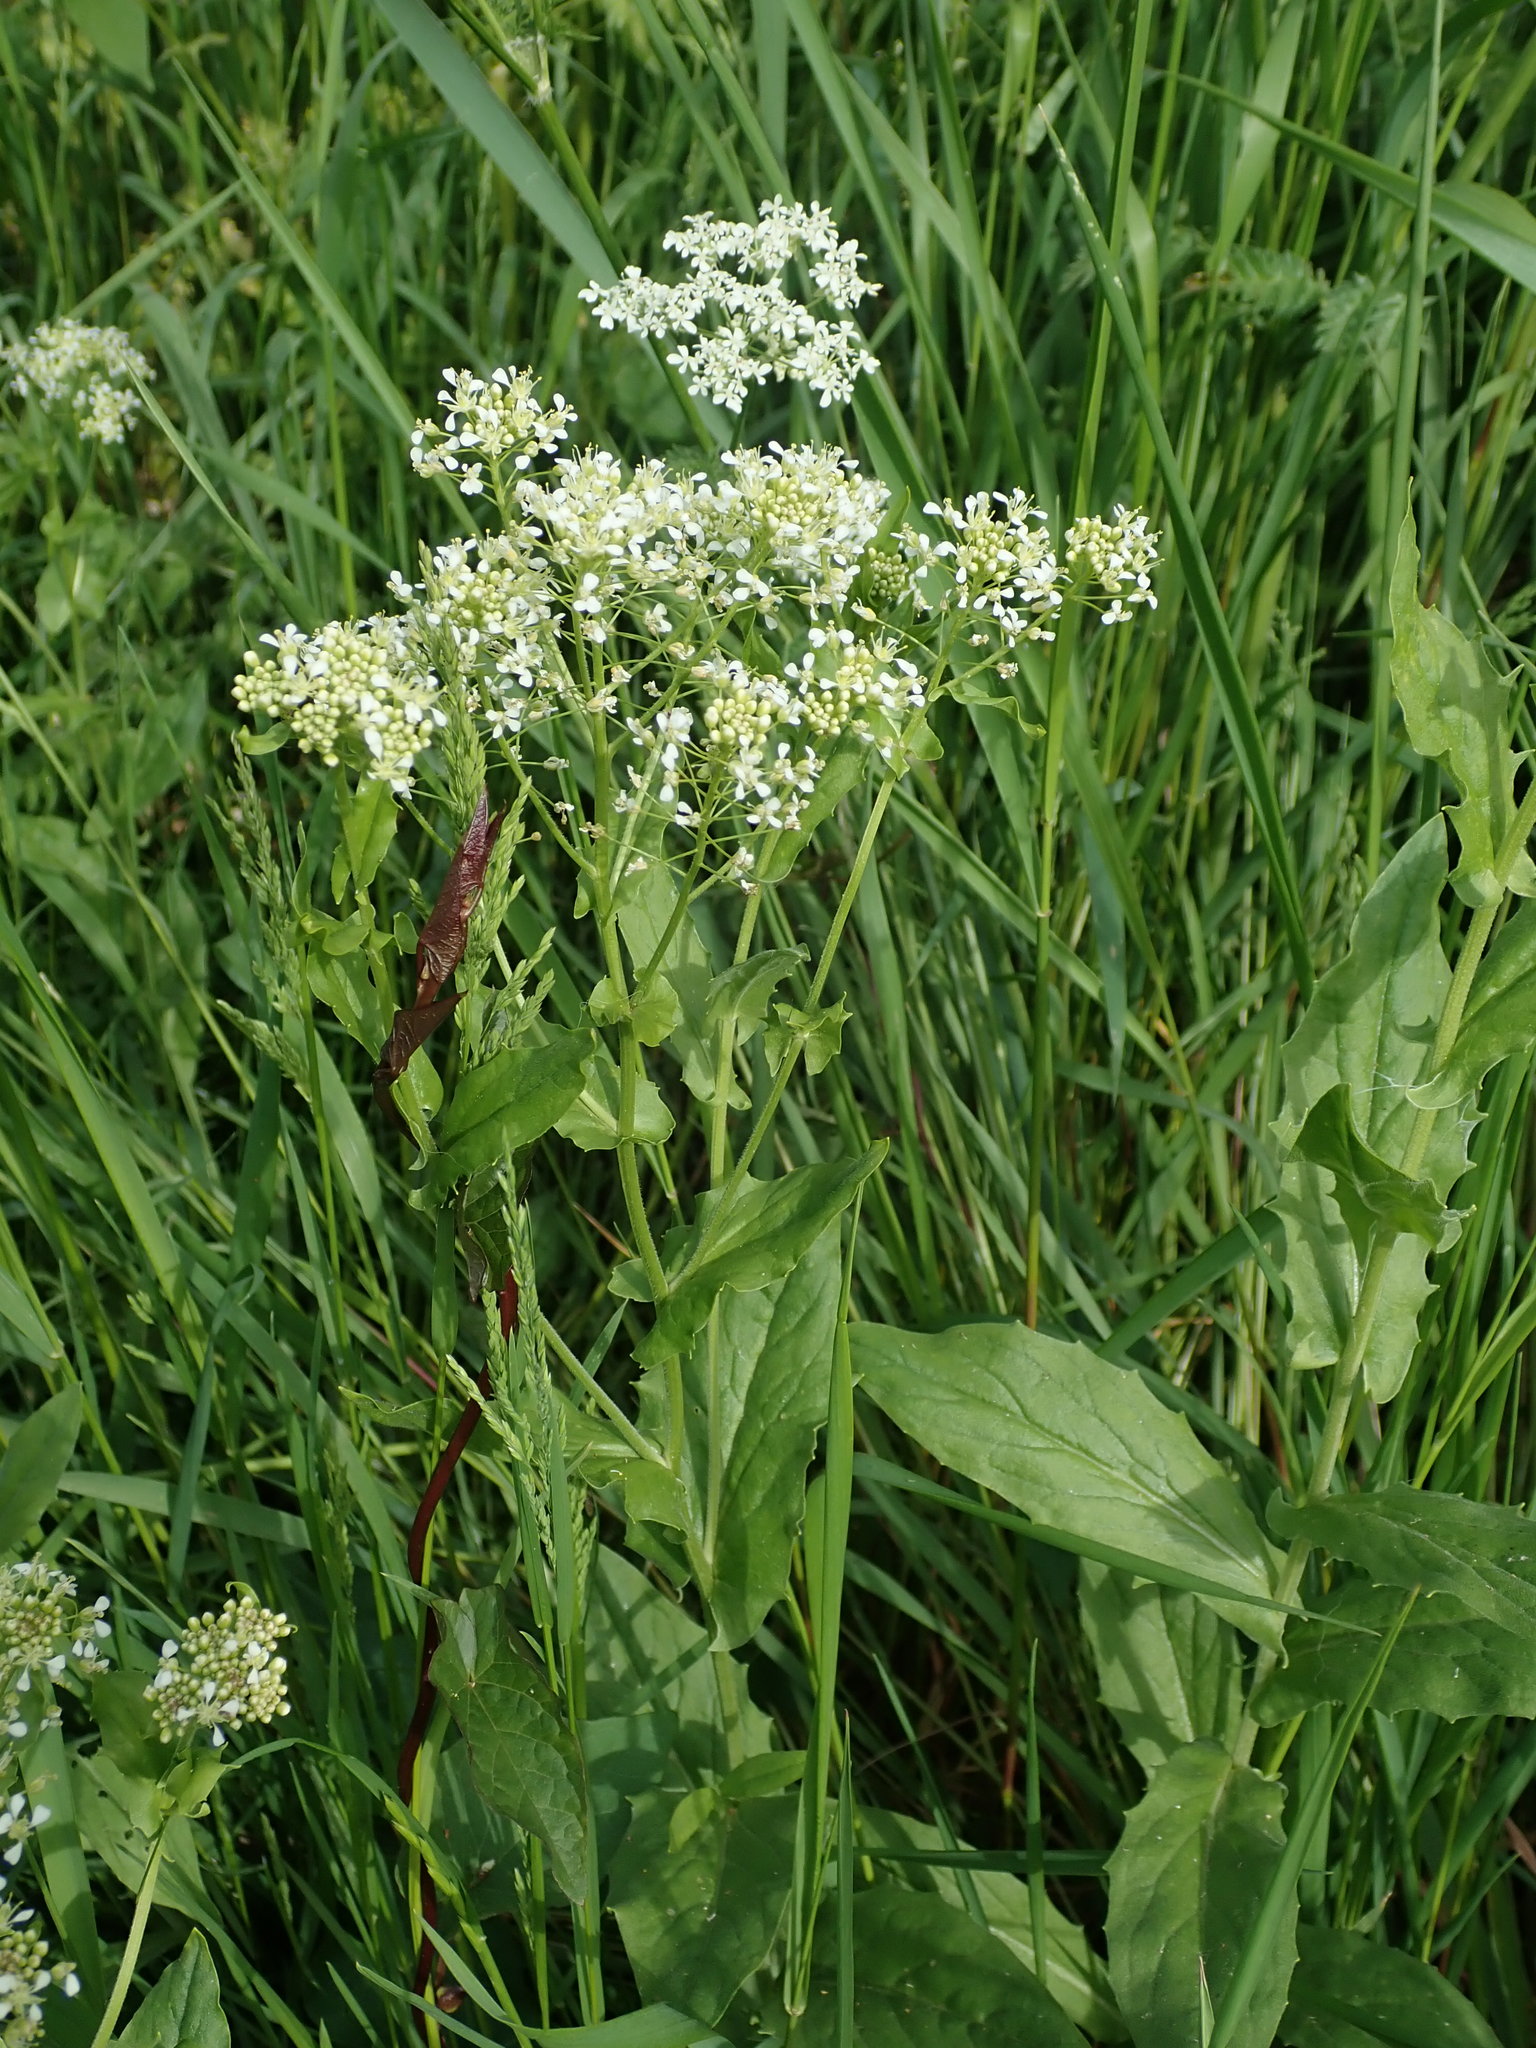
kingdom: Plantae
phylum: Tracheophyta
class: Magnoliopsida
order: Brassicales
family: Brassicaceae
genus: Lepidium
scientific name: Lepidium draba
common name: Hoary cress
